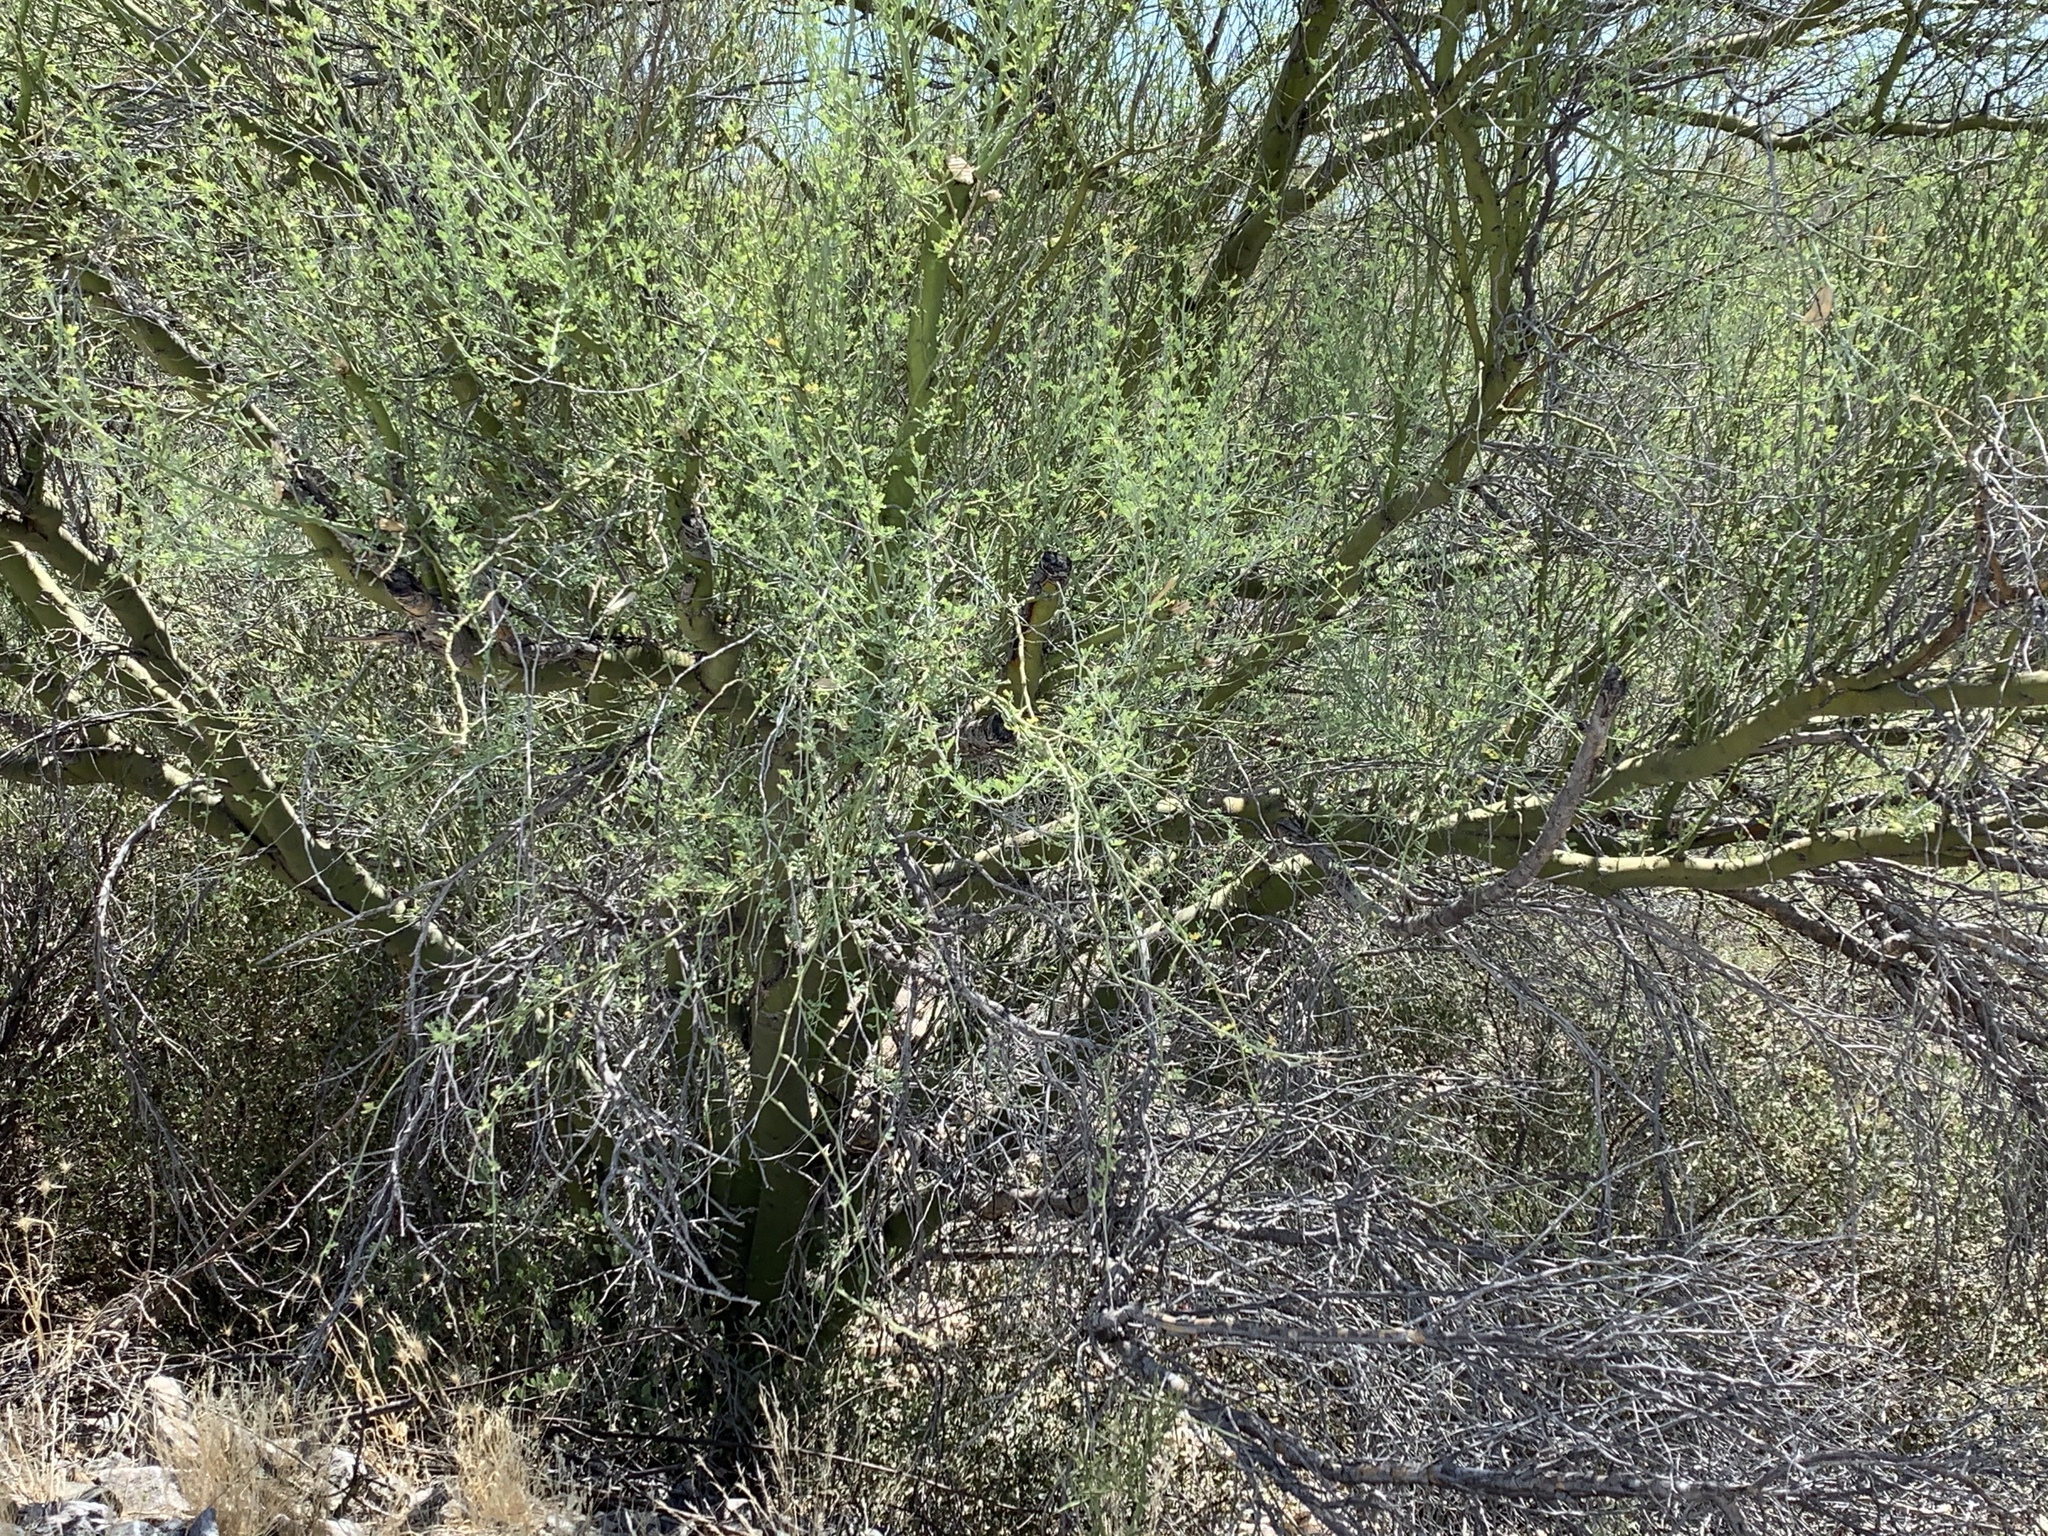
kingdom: Plantae
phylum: Tracheophyta
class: Magnoliopsida
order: Fabales
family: Fabaceae
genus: Parkinsonia
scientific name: Parkinsonia microphylla
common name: Yellow paloverde
